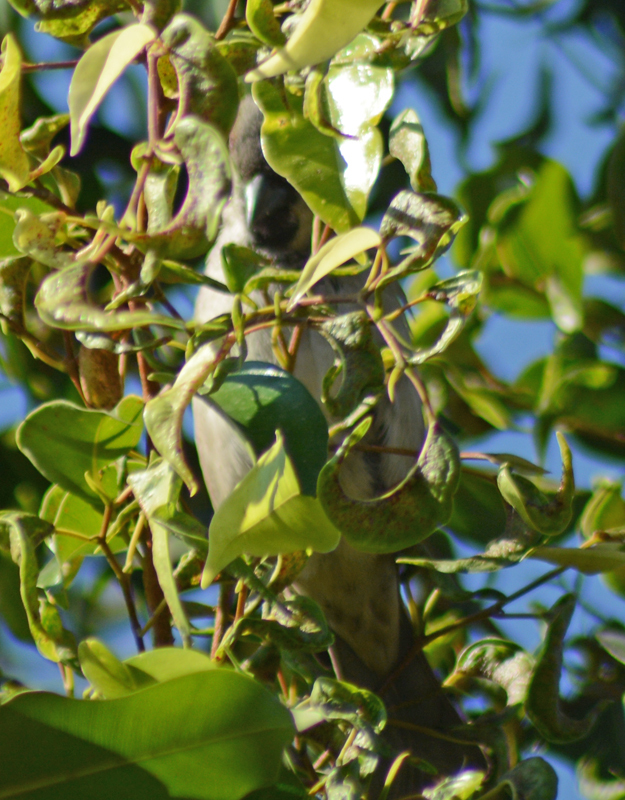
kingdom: Animalia
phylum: Chordata
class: Aves
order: Passeriformes
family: Passeridae
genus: Passer
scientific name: Passer domesticus
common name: House sparrow
